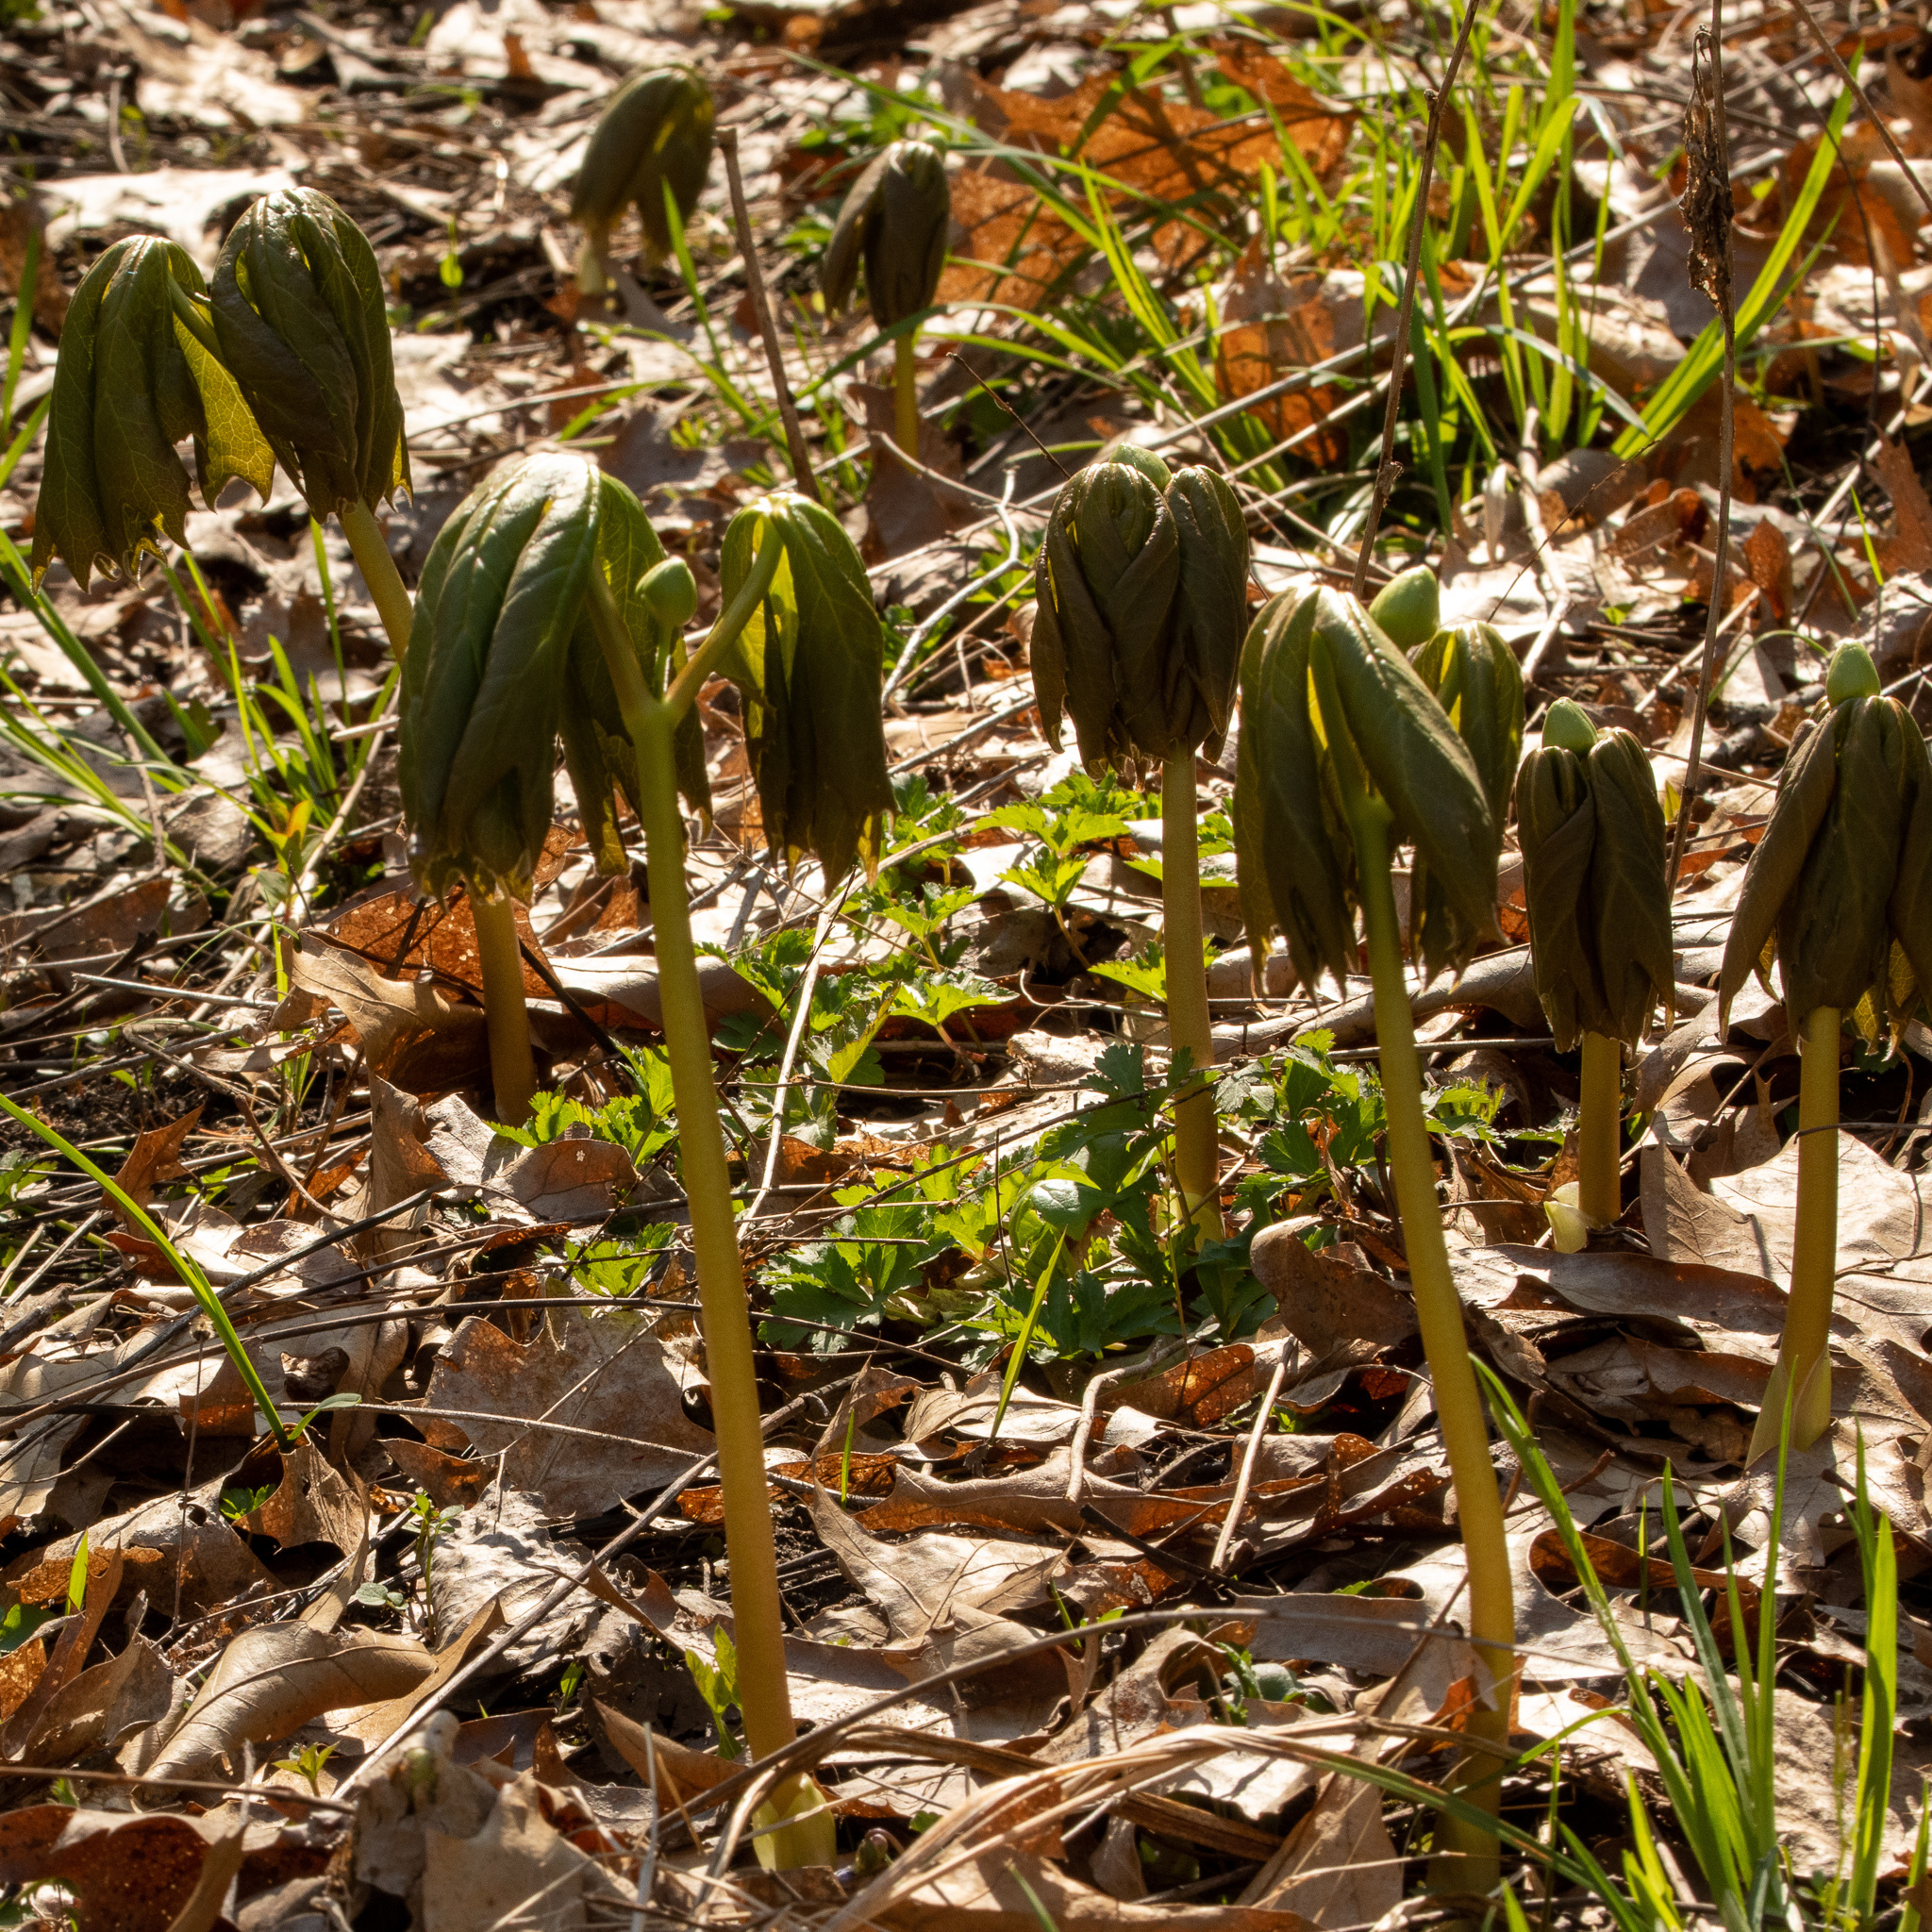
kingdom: Plantae
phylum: Tracheophyta
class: Magnoliopsida
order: Ranunculales
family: Berberidaceae
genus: Podophyllum
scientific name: Podophyllum peltatum
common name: Wild mandrake
